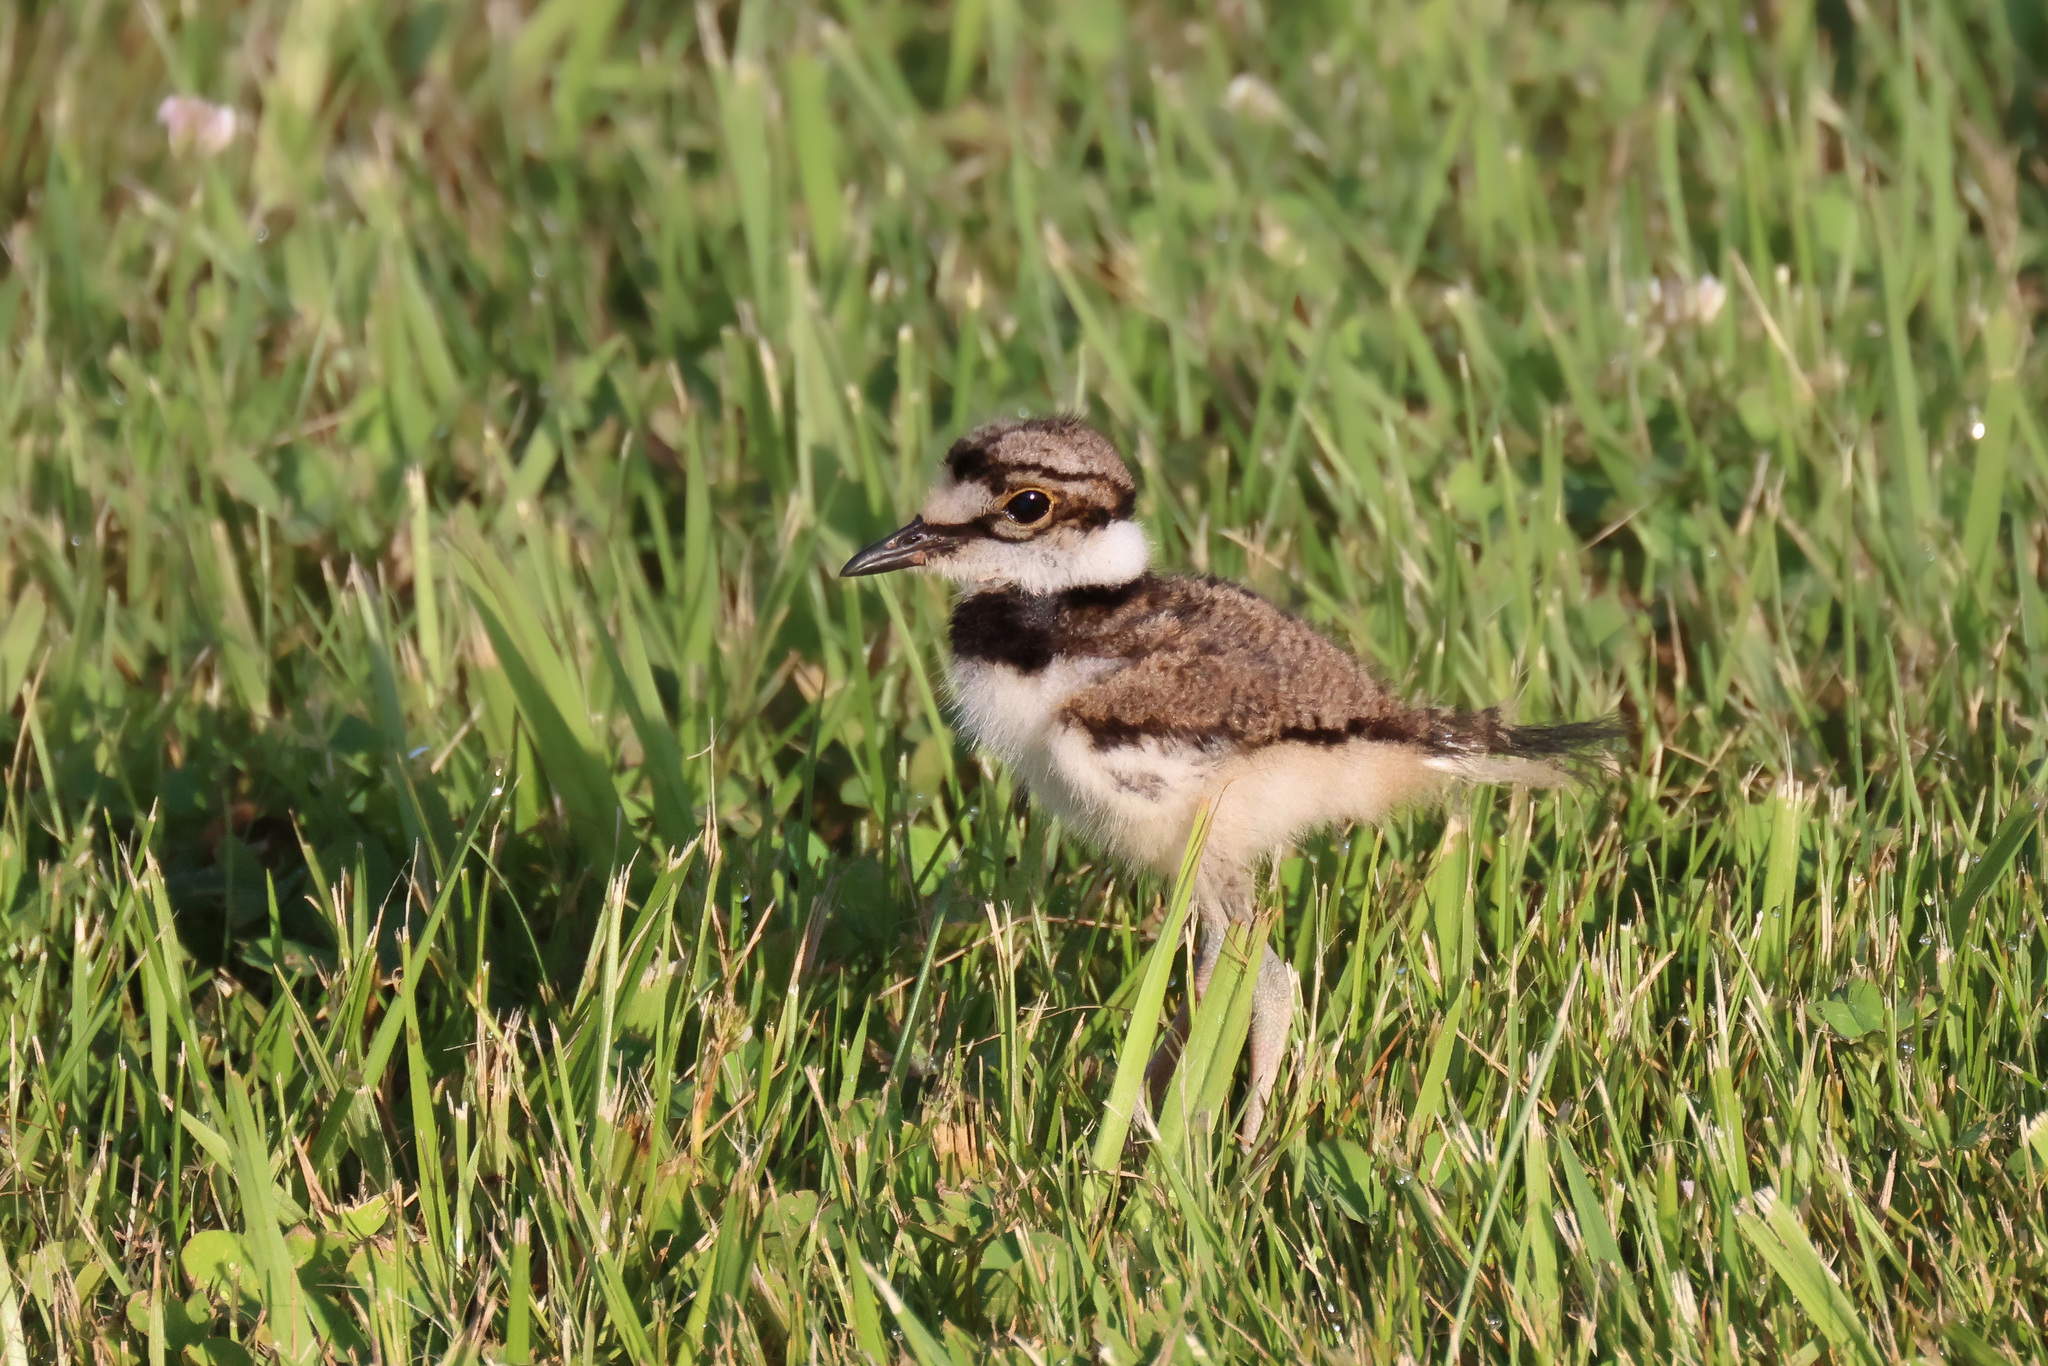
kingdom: Animalia
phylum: Chordata
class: Aves
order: Charadriiformes
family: Charadriidae
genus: Charadrius
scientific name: Charadrius vociferus
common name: Killdeer
